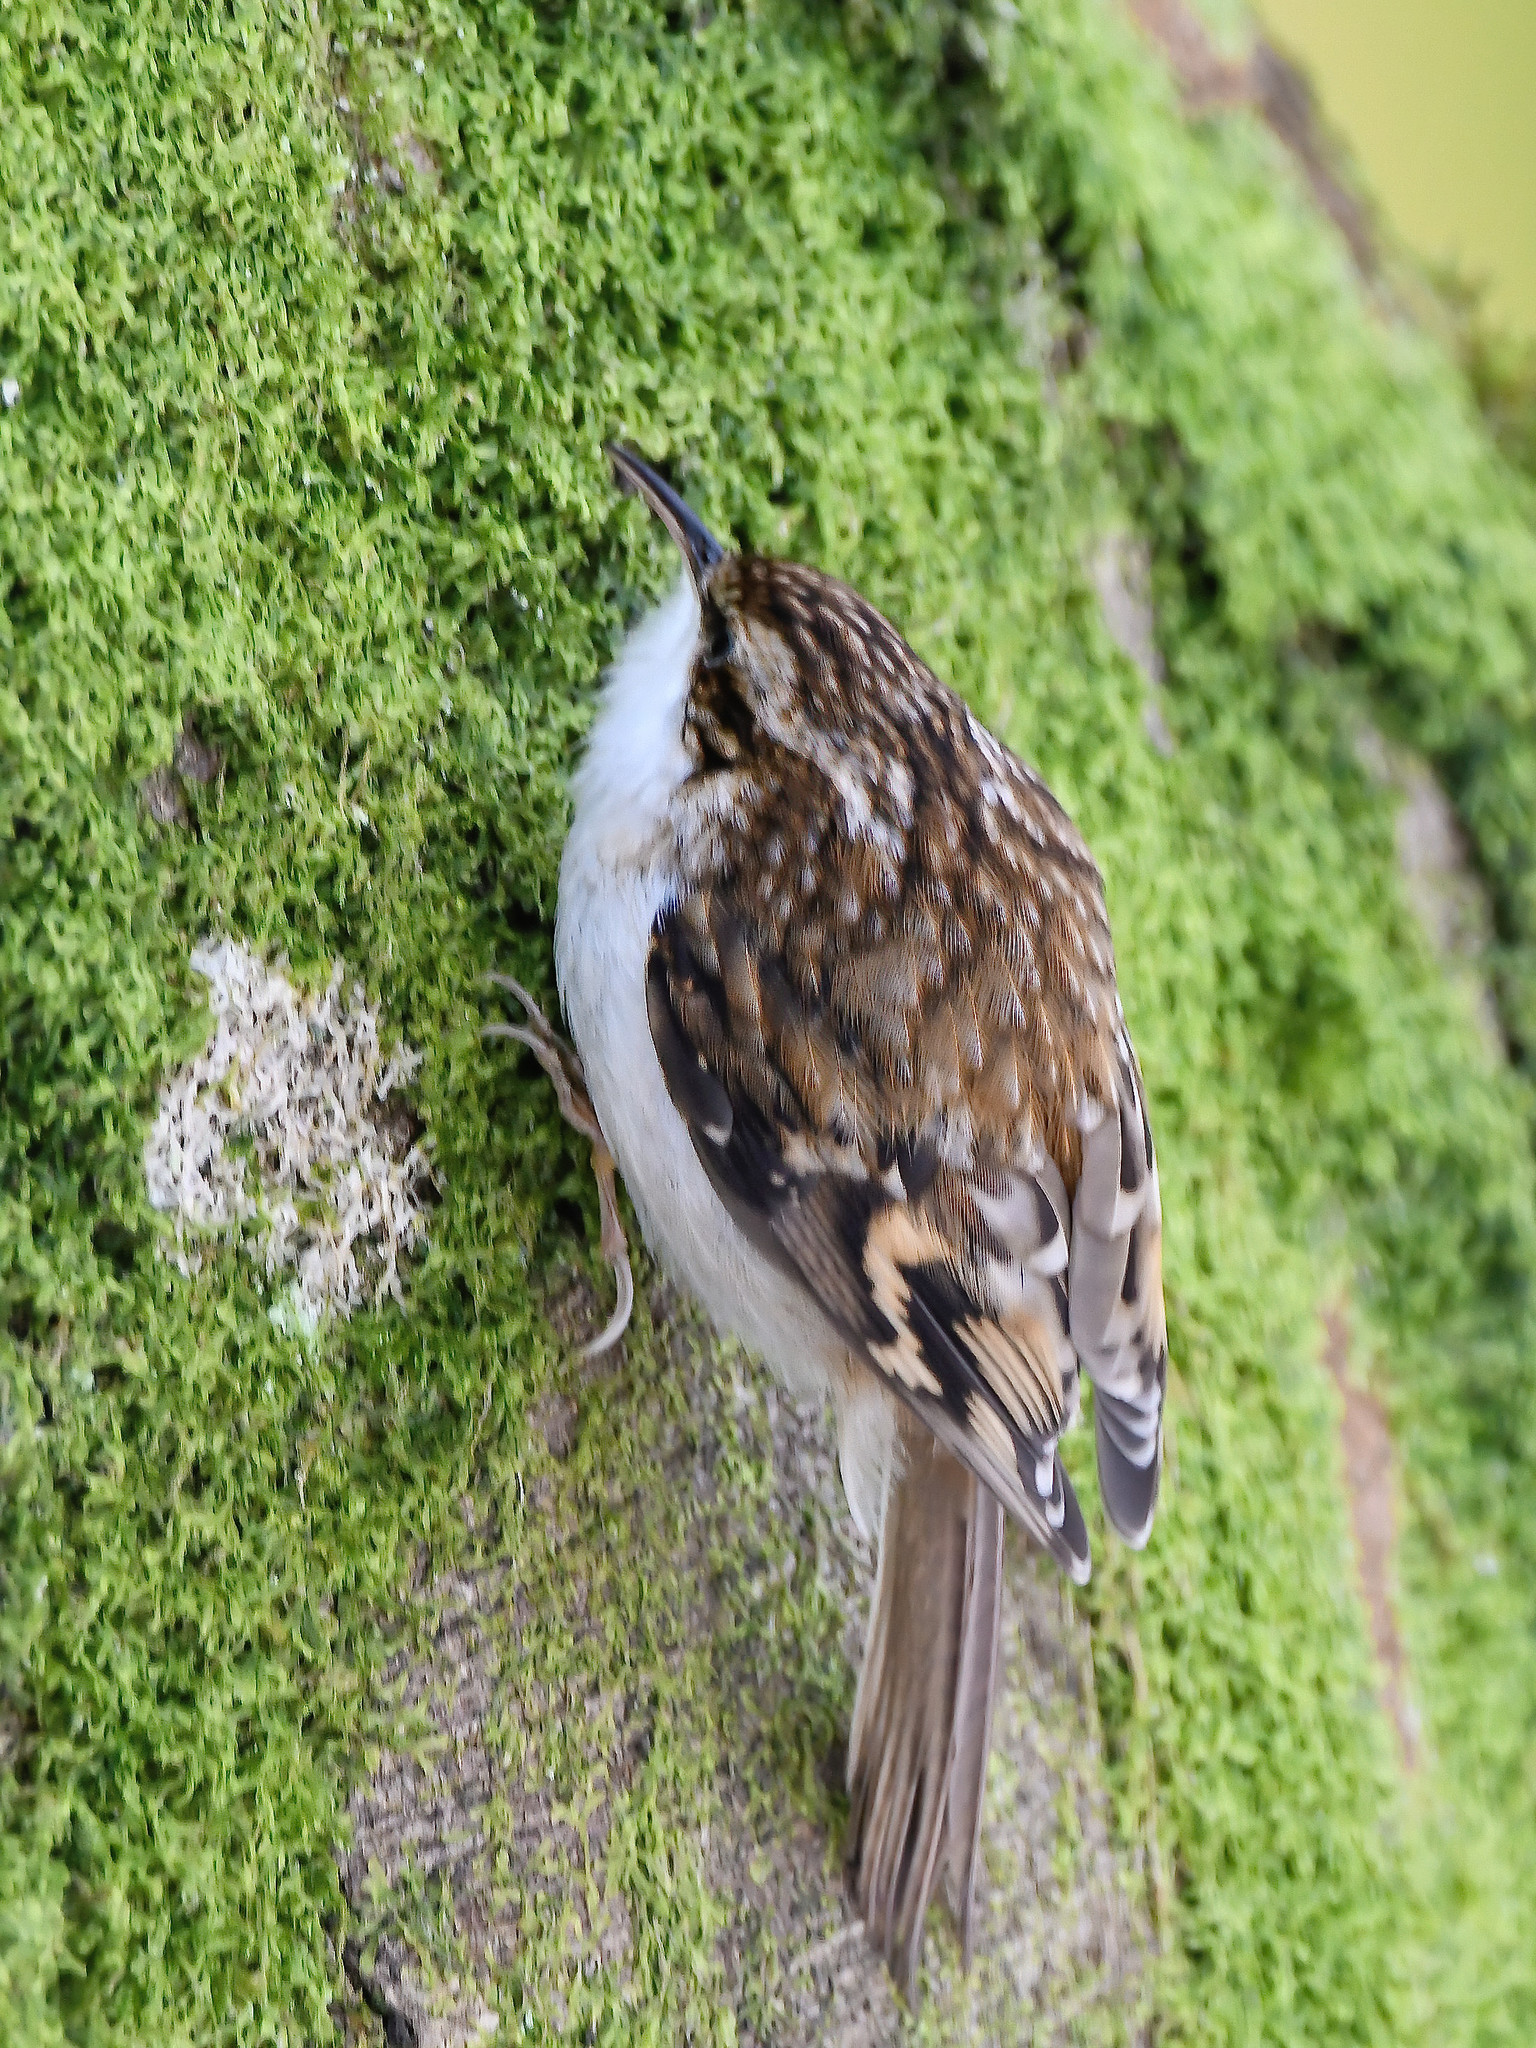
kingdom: Animalia
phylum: Chordata
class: Aves
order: Passeriformes
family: Certhiidae
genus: Certhia
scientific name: Certhia familiaris
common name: Eurasian treecreeper
